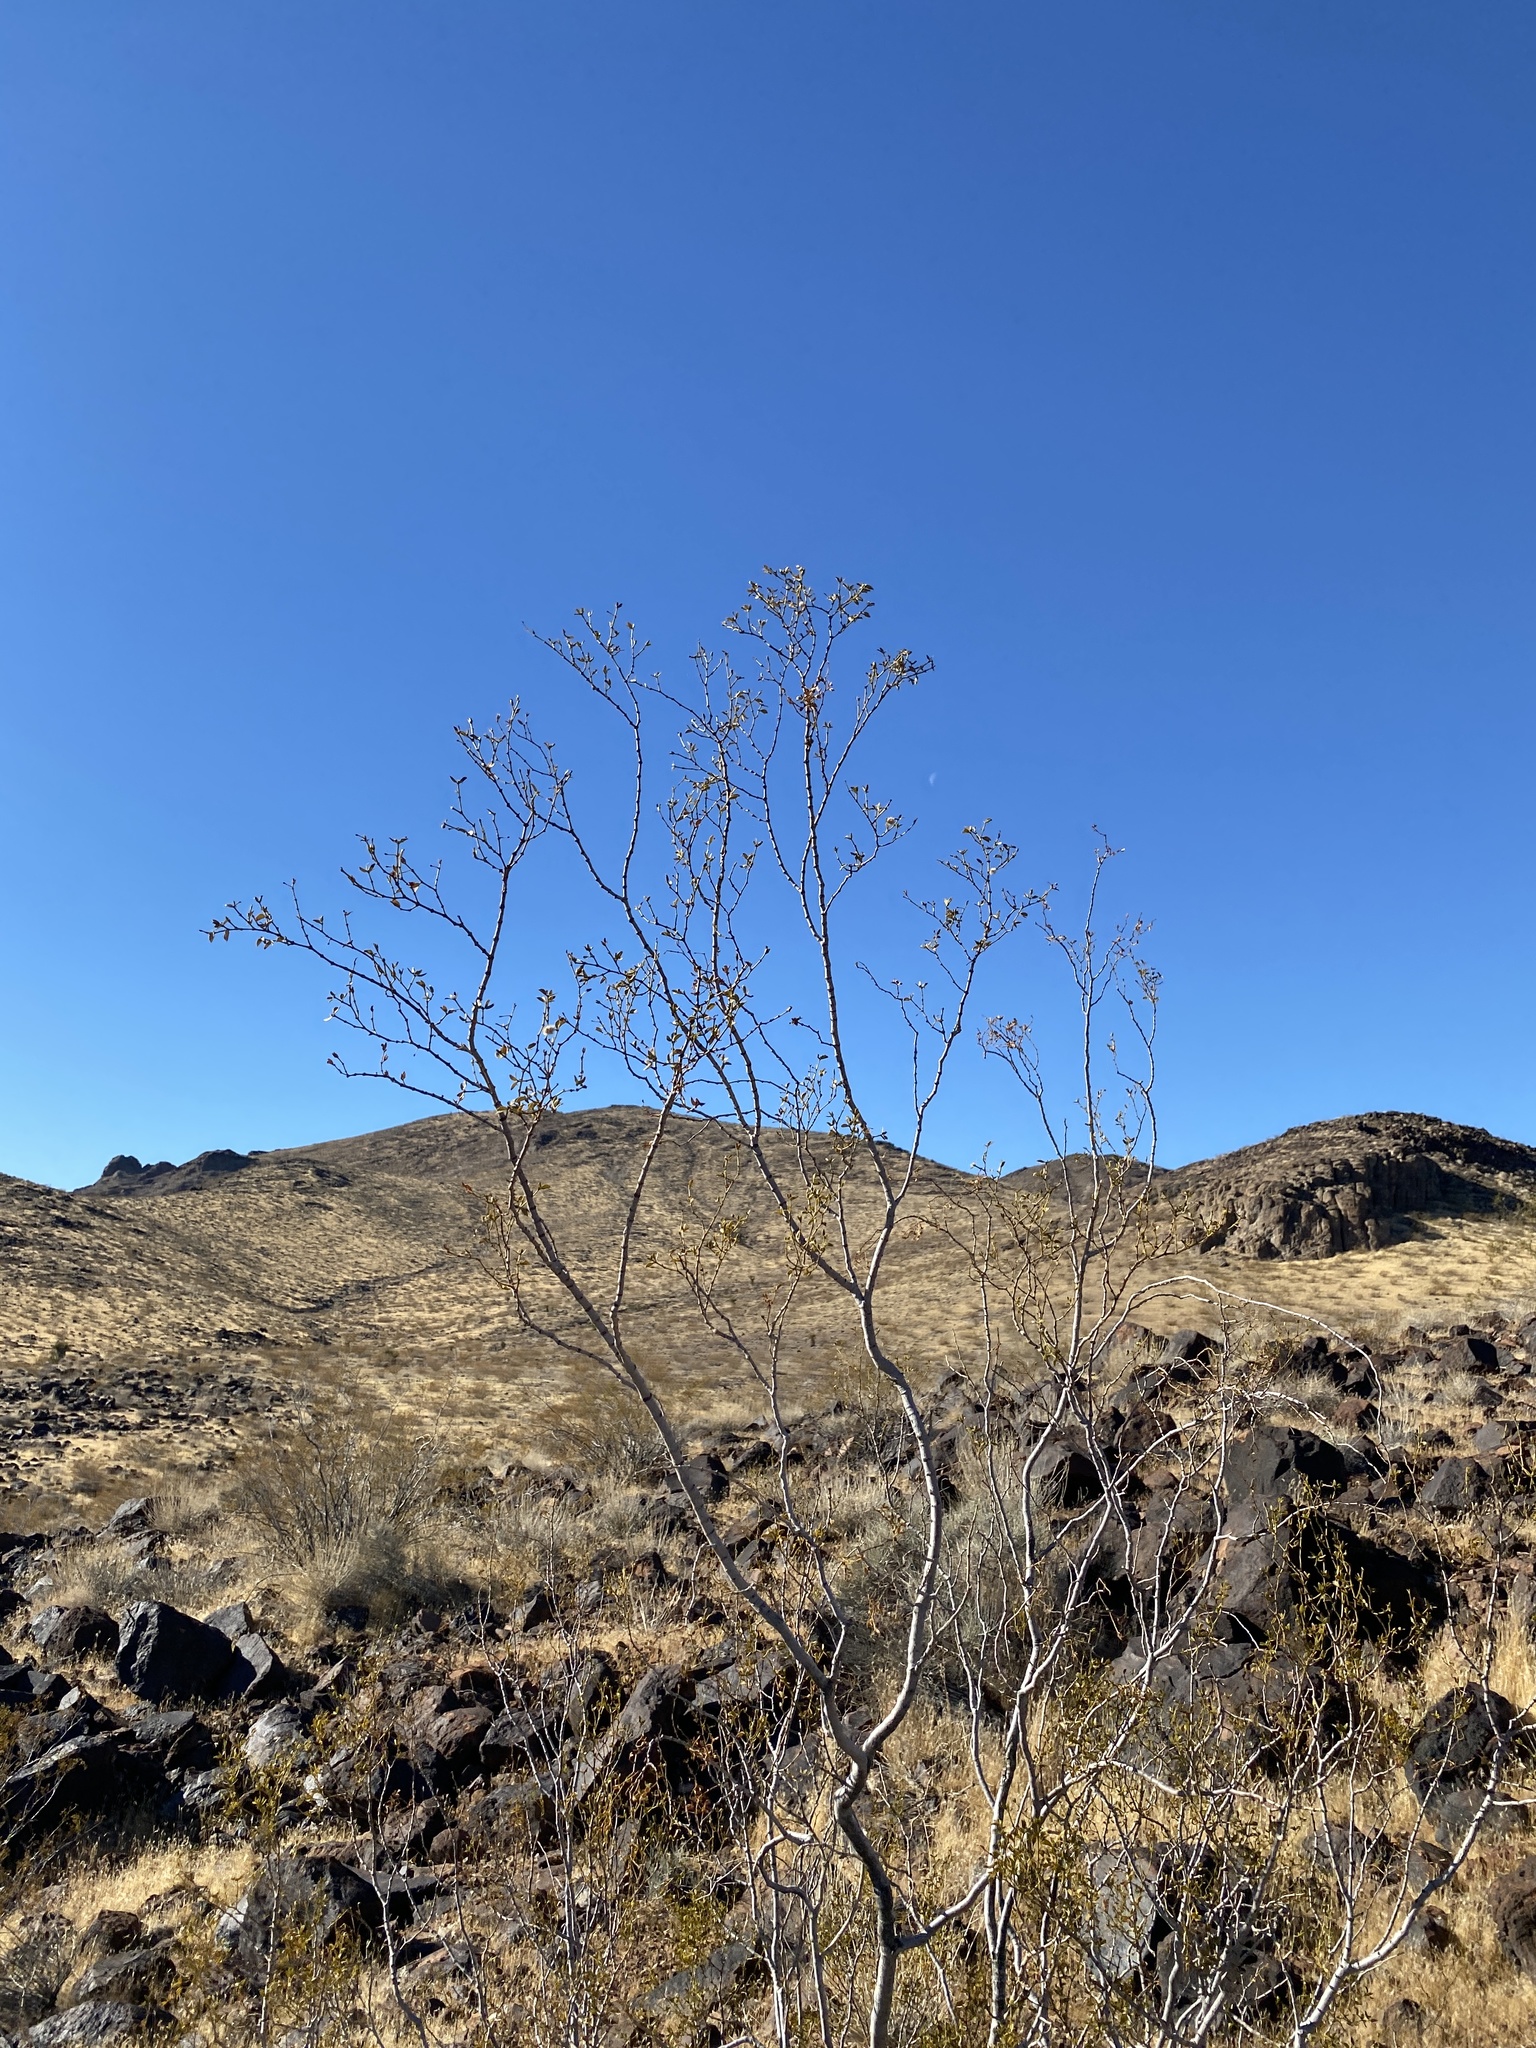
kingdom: Plantae
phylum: Tracheophyta
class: Magnoliopsida
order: Zygophyllales
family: Zygophyllaceae
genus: Larrea
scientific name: Larrea tridentata
